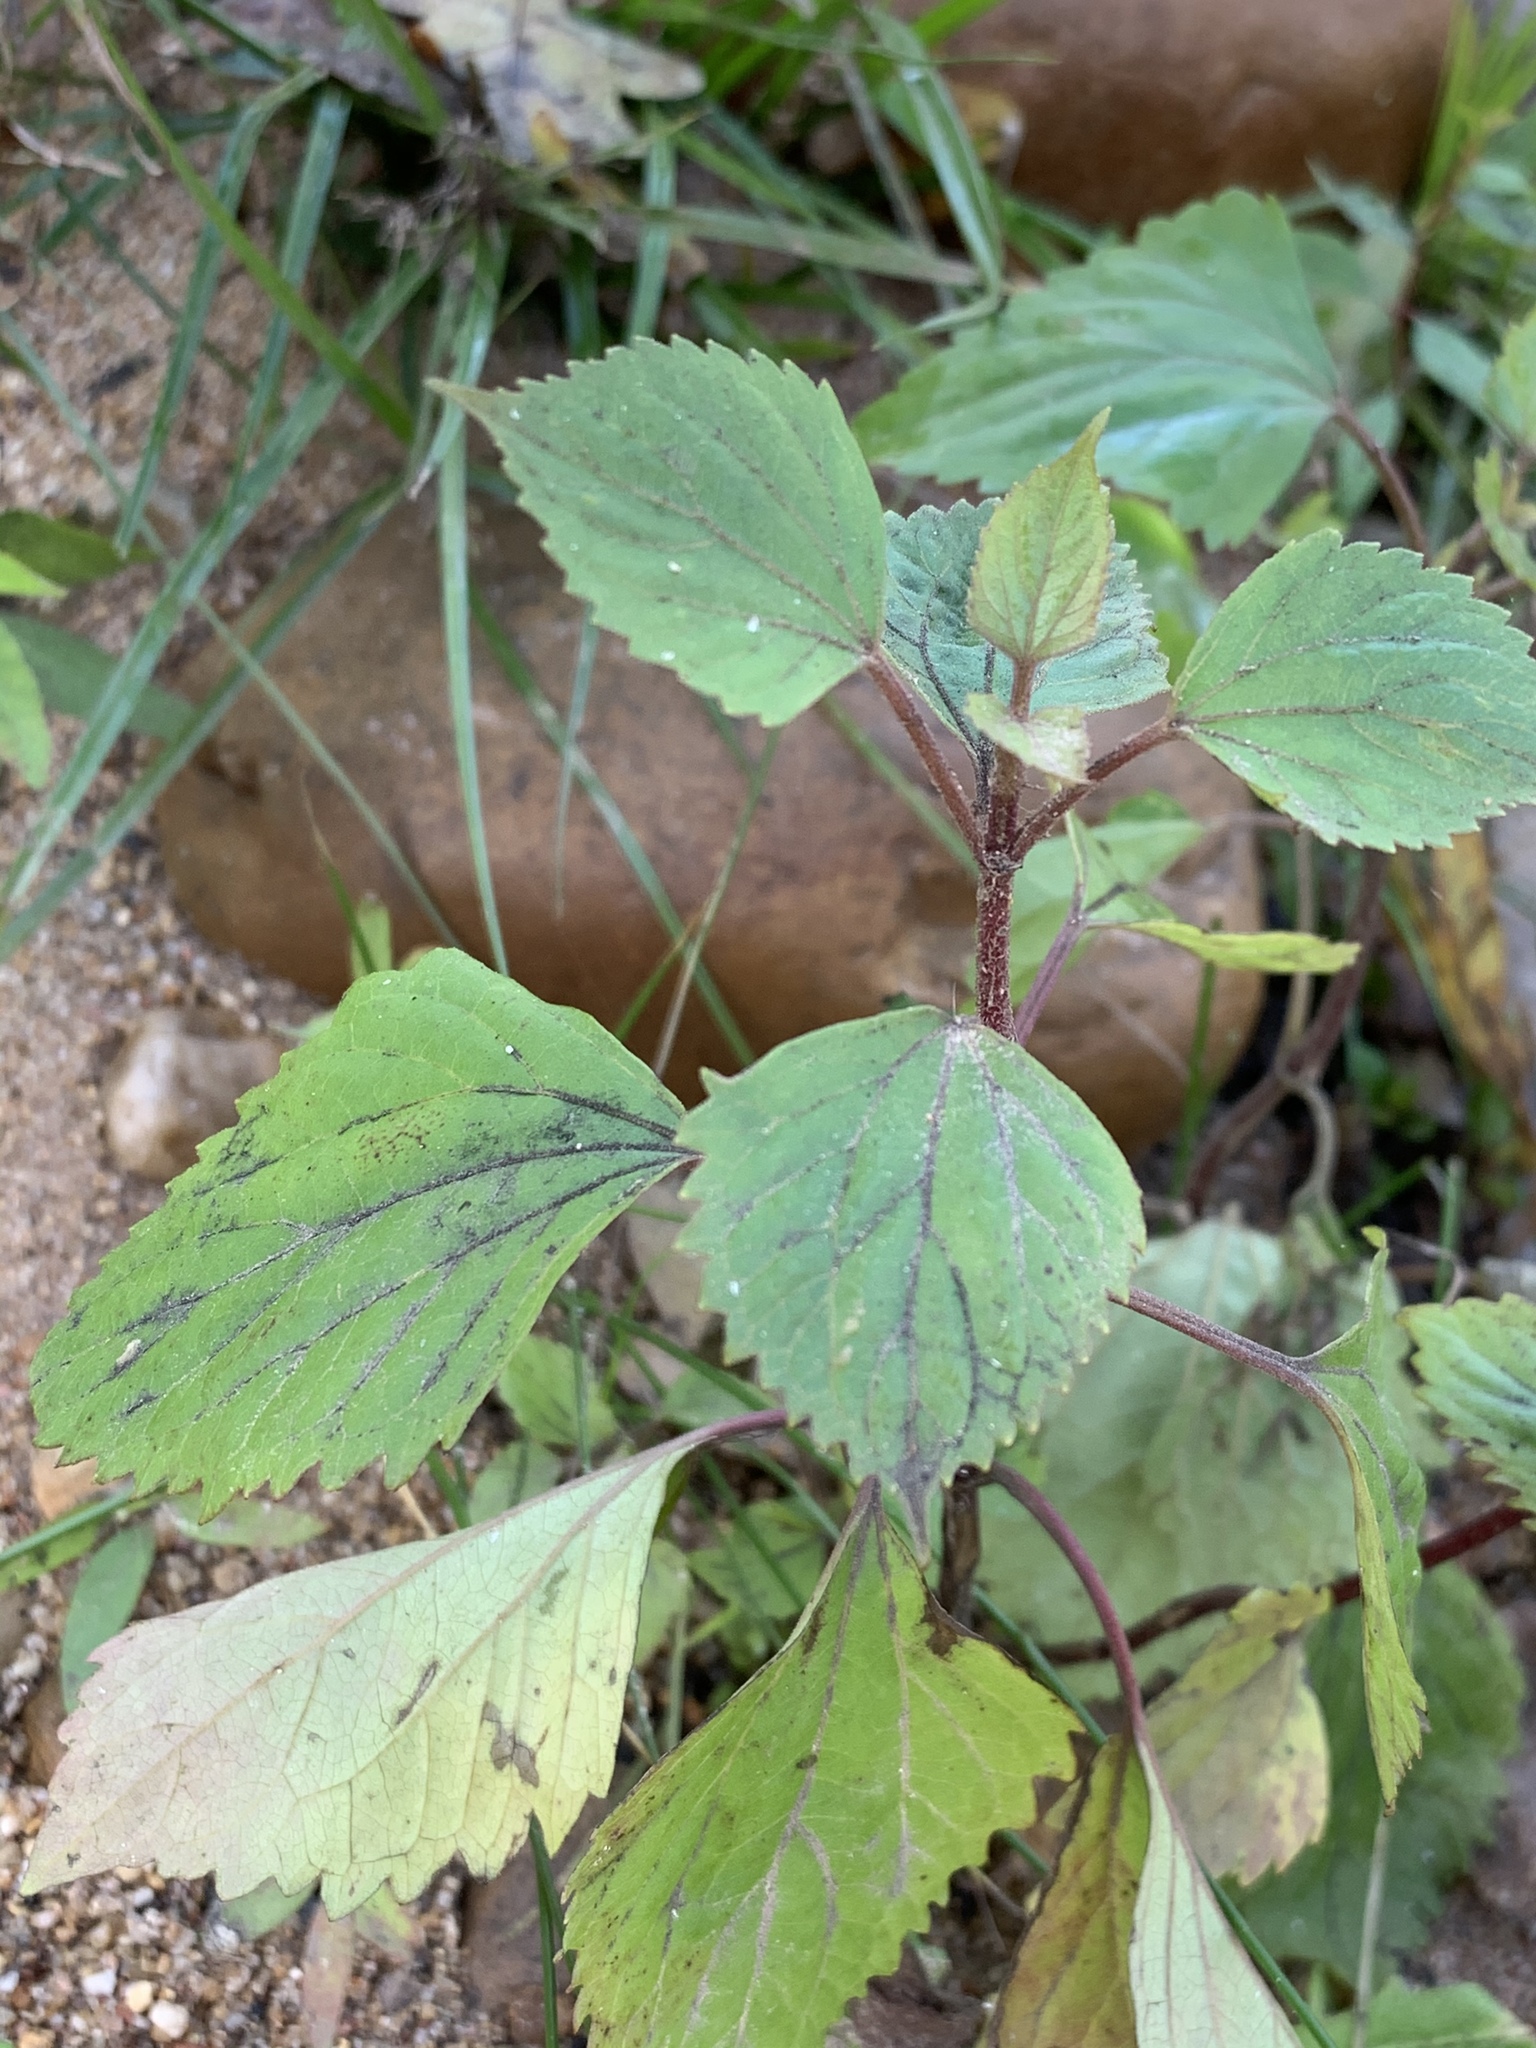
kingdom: Plantae
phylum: Tracheophyta
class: Magnoliopsida
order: Asterales
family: Asteraceae
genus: Ageratina
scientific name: Ageratina adenophora
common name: Sticky snakeroot
